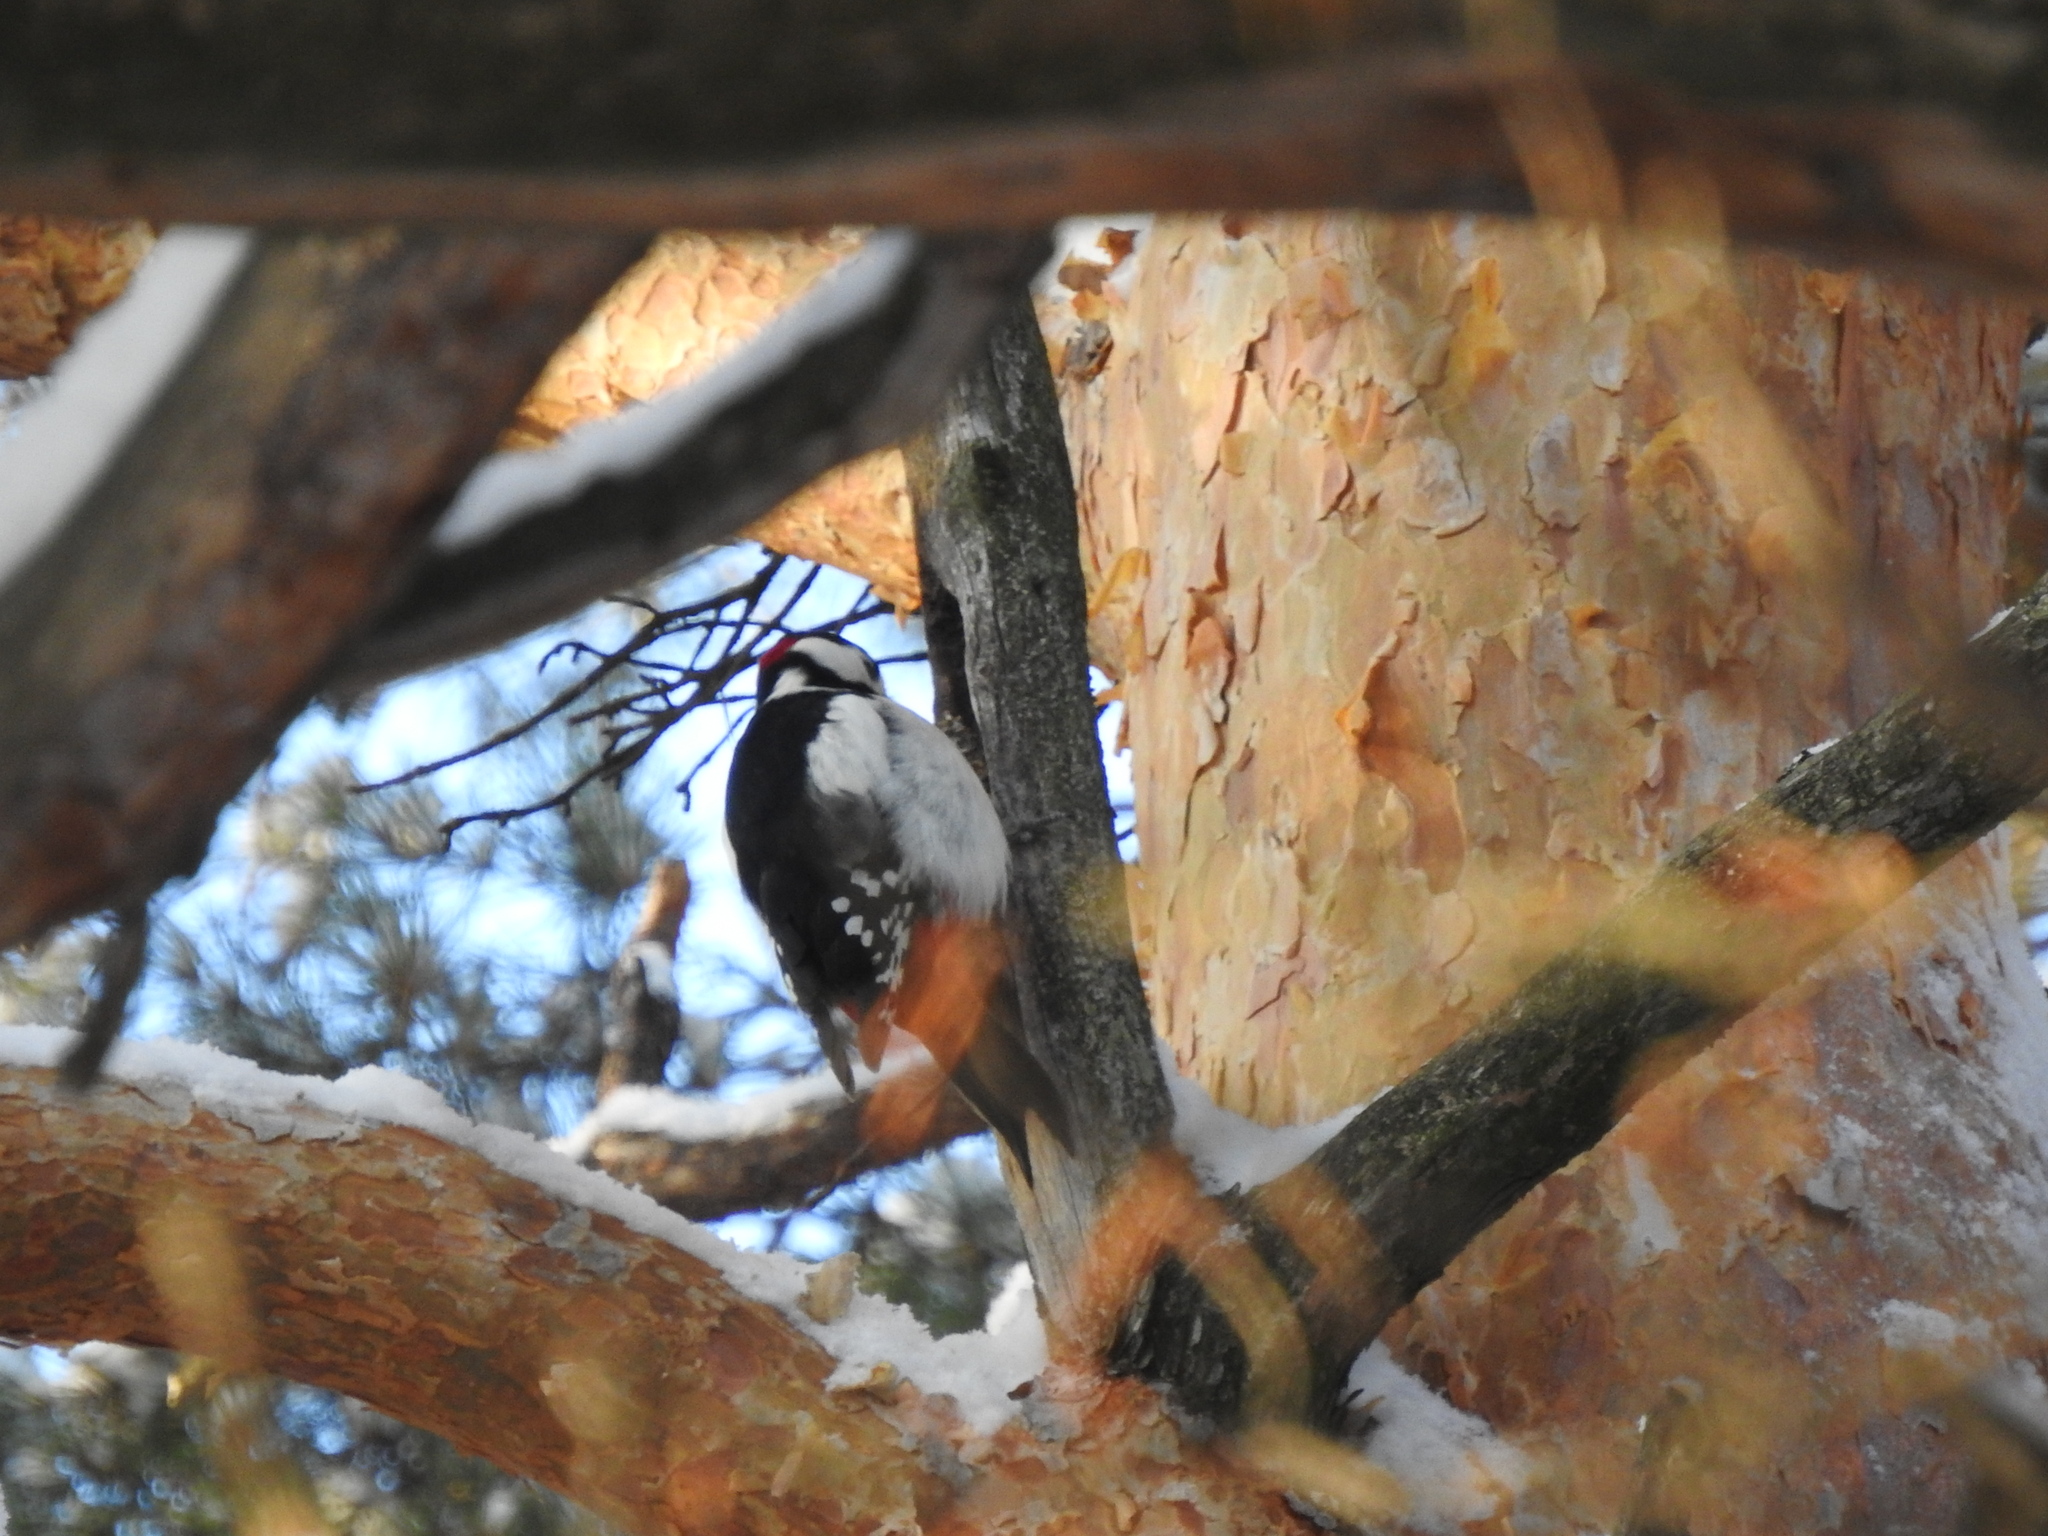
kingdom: Animalia
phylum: Chordata
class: Aves
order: Piciformes
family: Picidae
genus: Dendrocopos
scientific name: Dendrocopos major
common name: Great spotted woodpecker
